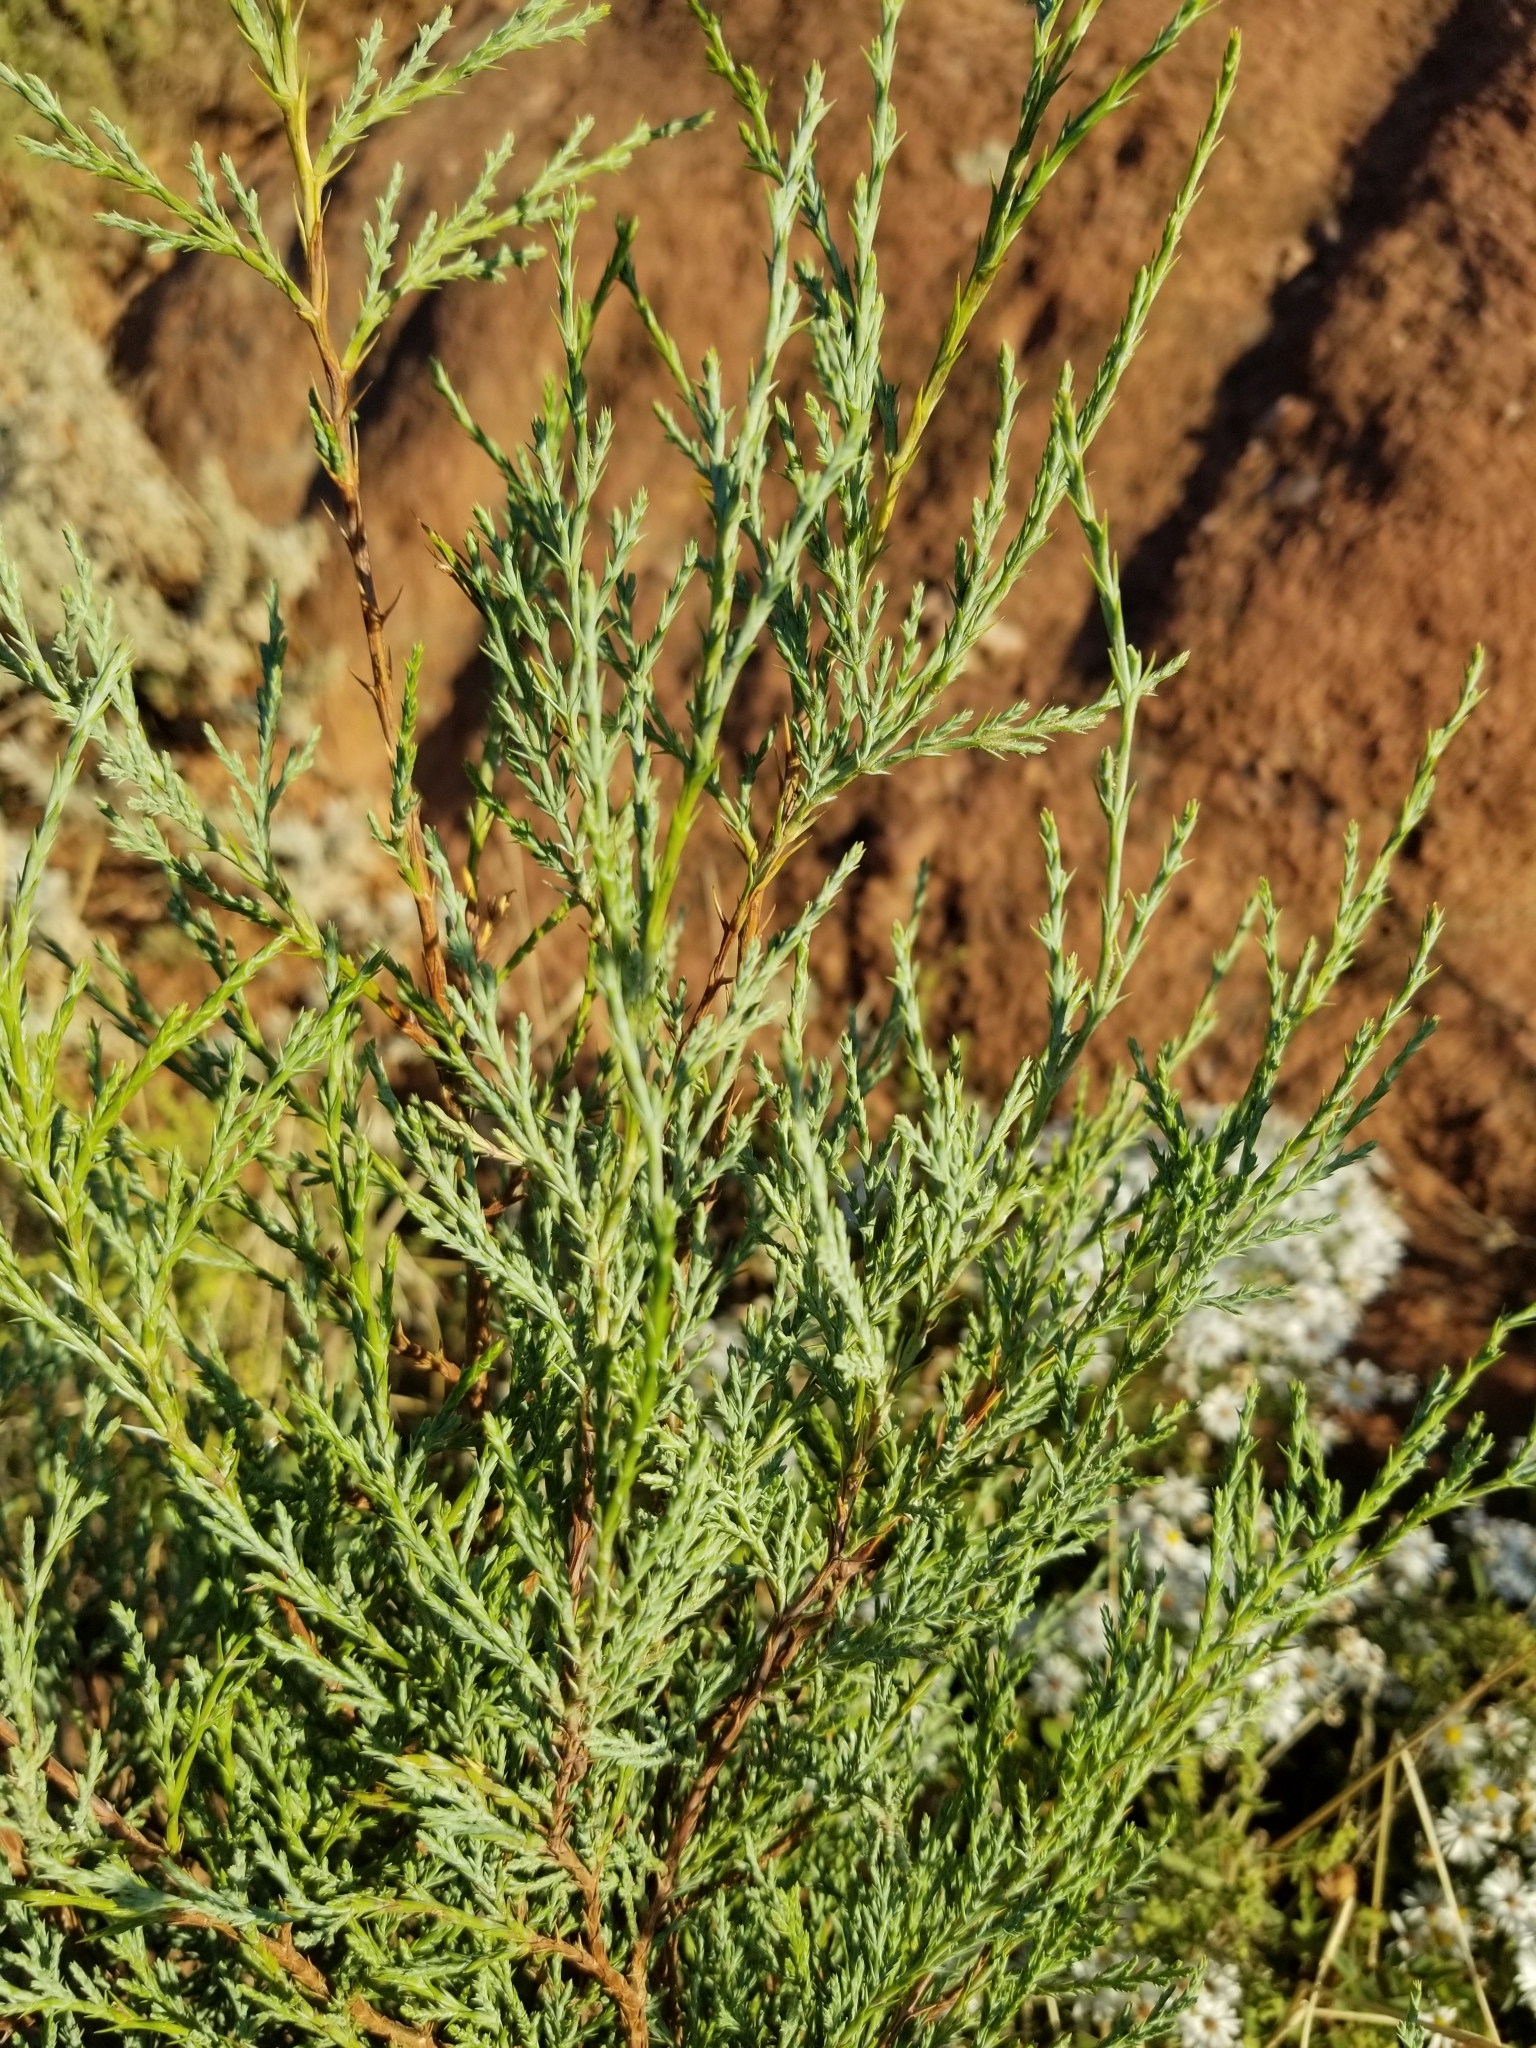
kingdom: Plantae
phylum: Tracheophyta
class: Pinopsida
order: Pinales
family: Cupressaceae
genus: Juniperus
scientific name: Juniperus scopulorum
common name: Rocky mountain juniper
